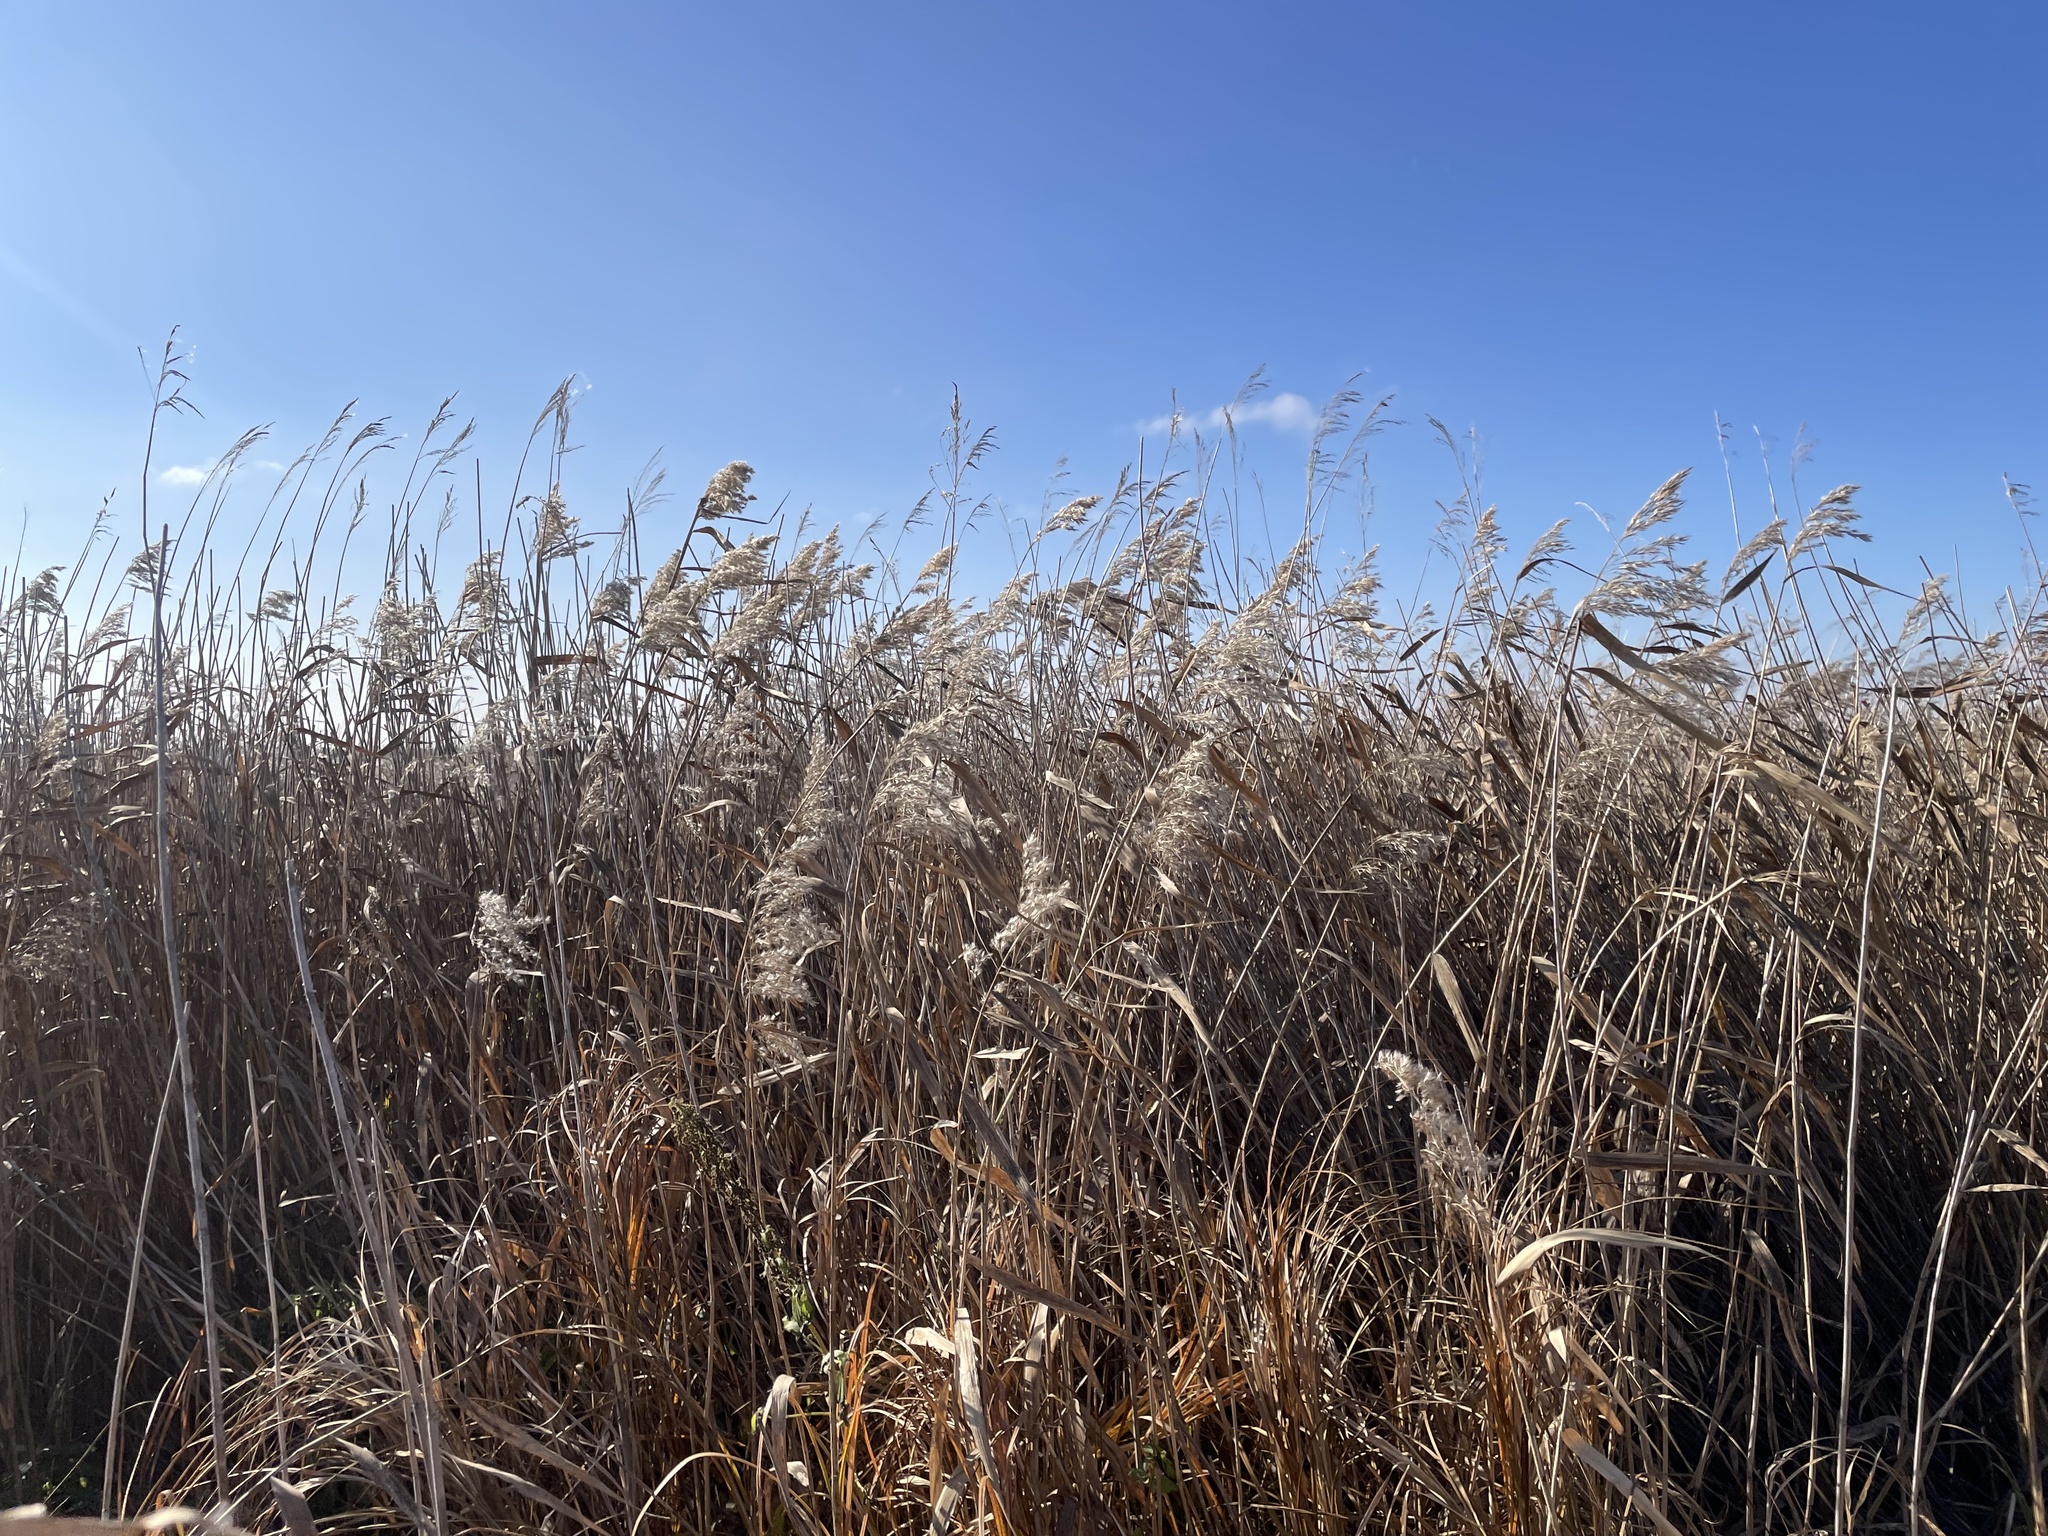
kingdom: Plantae
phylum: Tracheophyta
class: Liliopsida
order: Poales
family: Poaceae
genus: Phragmites
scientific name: Phragmites australis
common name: Common reed
